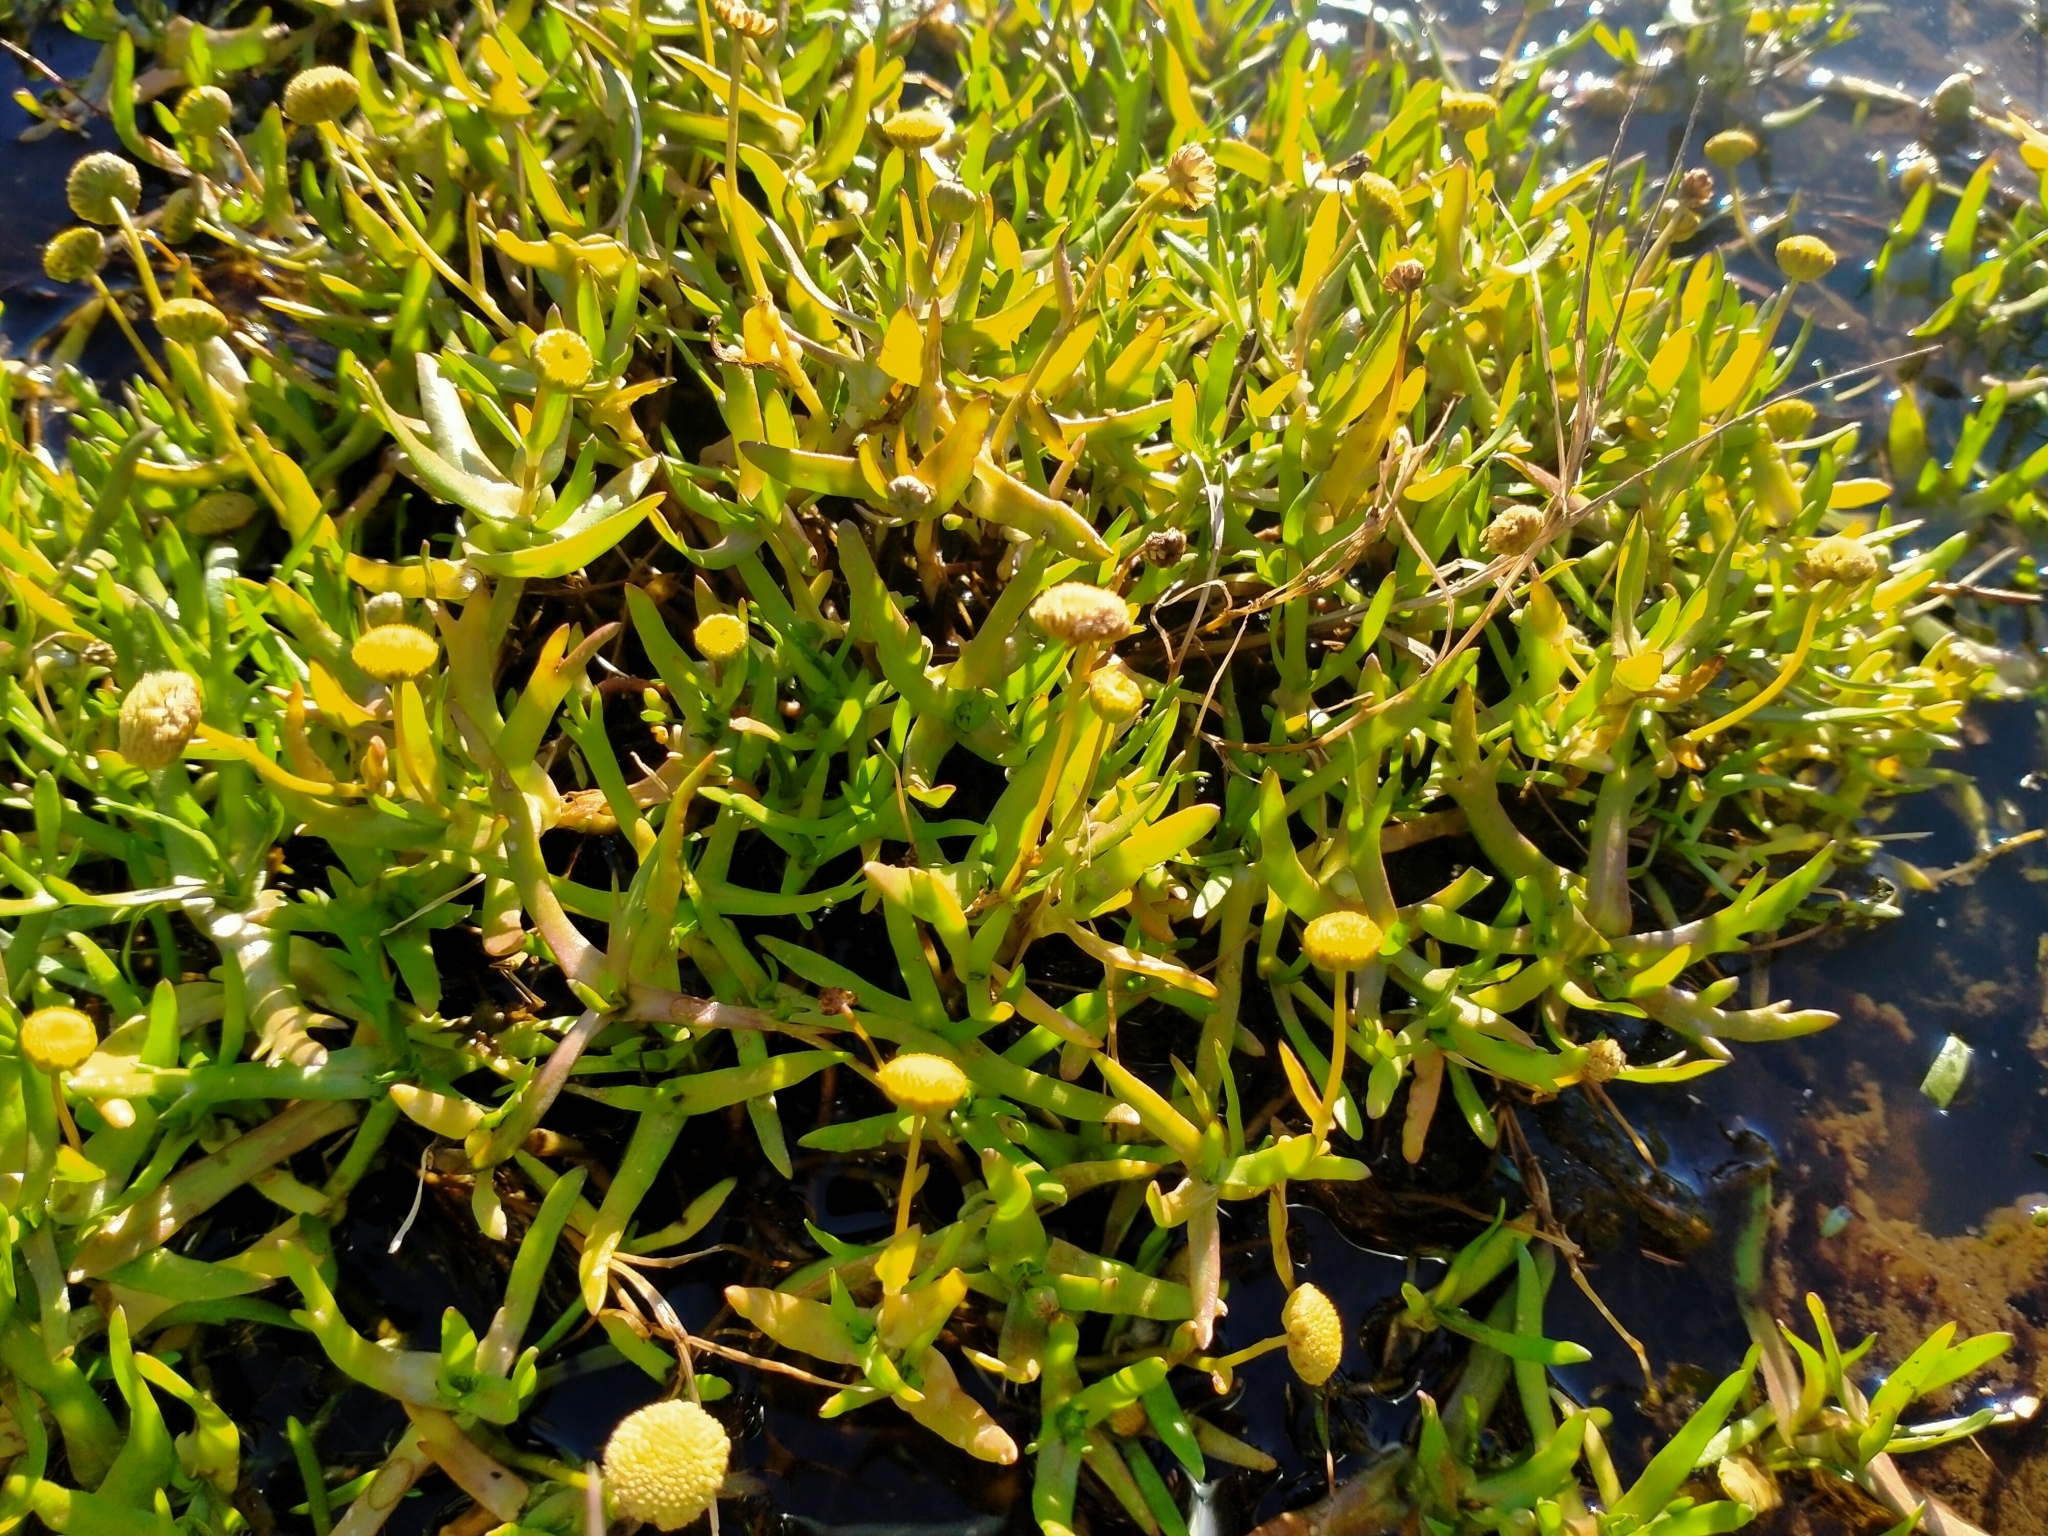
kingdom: Plantae
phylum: Tracheophyta
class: Magnoliopsida
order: Asterales
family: Asteraceae
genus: Cotula
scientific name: Cotula coronopifolia
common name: Buttonweed
